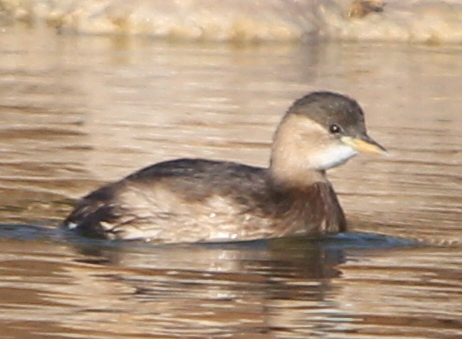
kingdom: Animalia
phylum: Chordata
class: Aves
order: Podicipediformes
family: Podicipedidae
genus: Tachybaptus
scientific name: Tachybaptus ruficollis
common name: Little grebe
